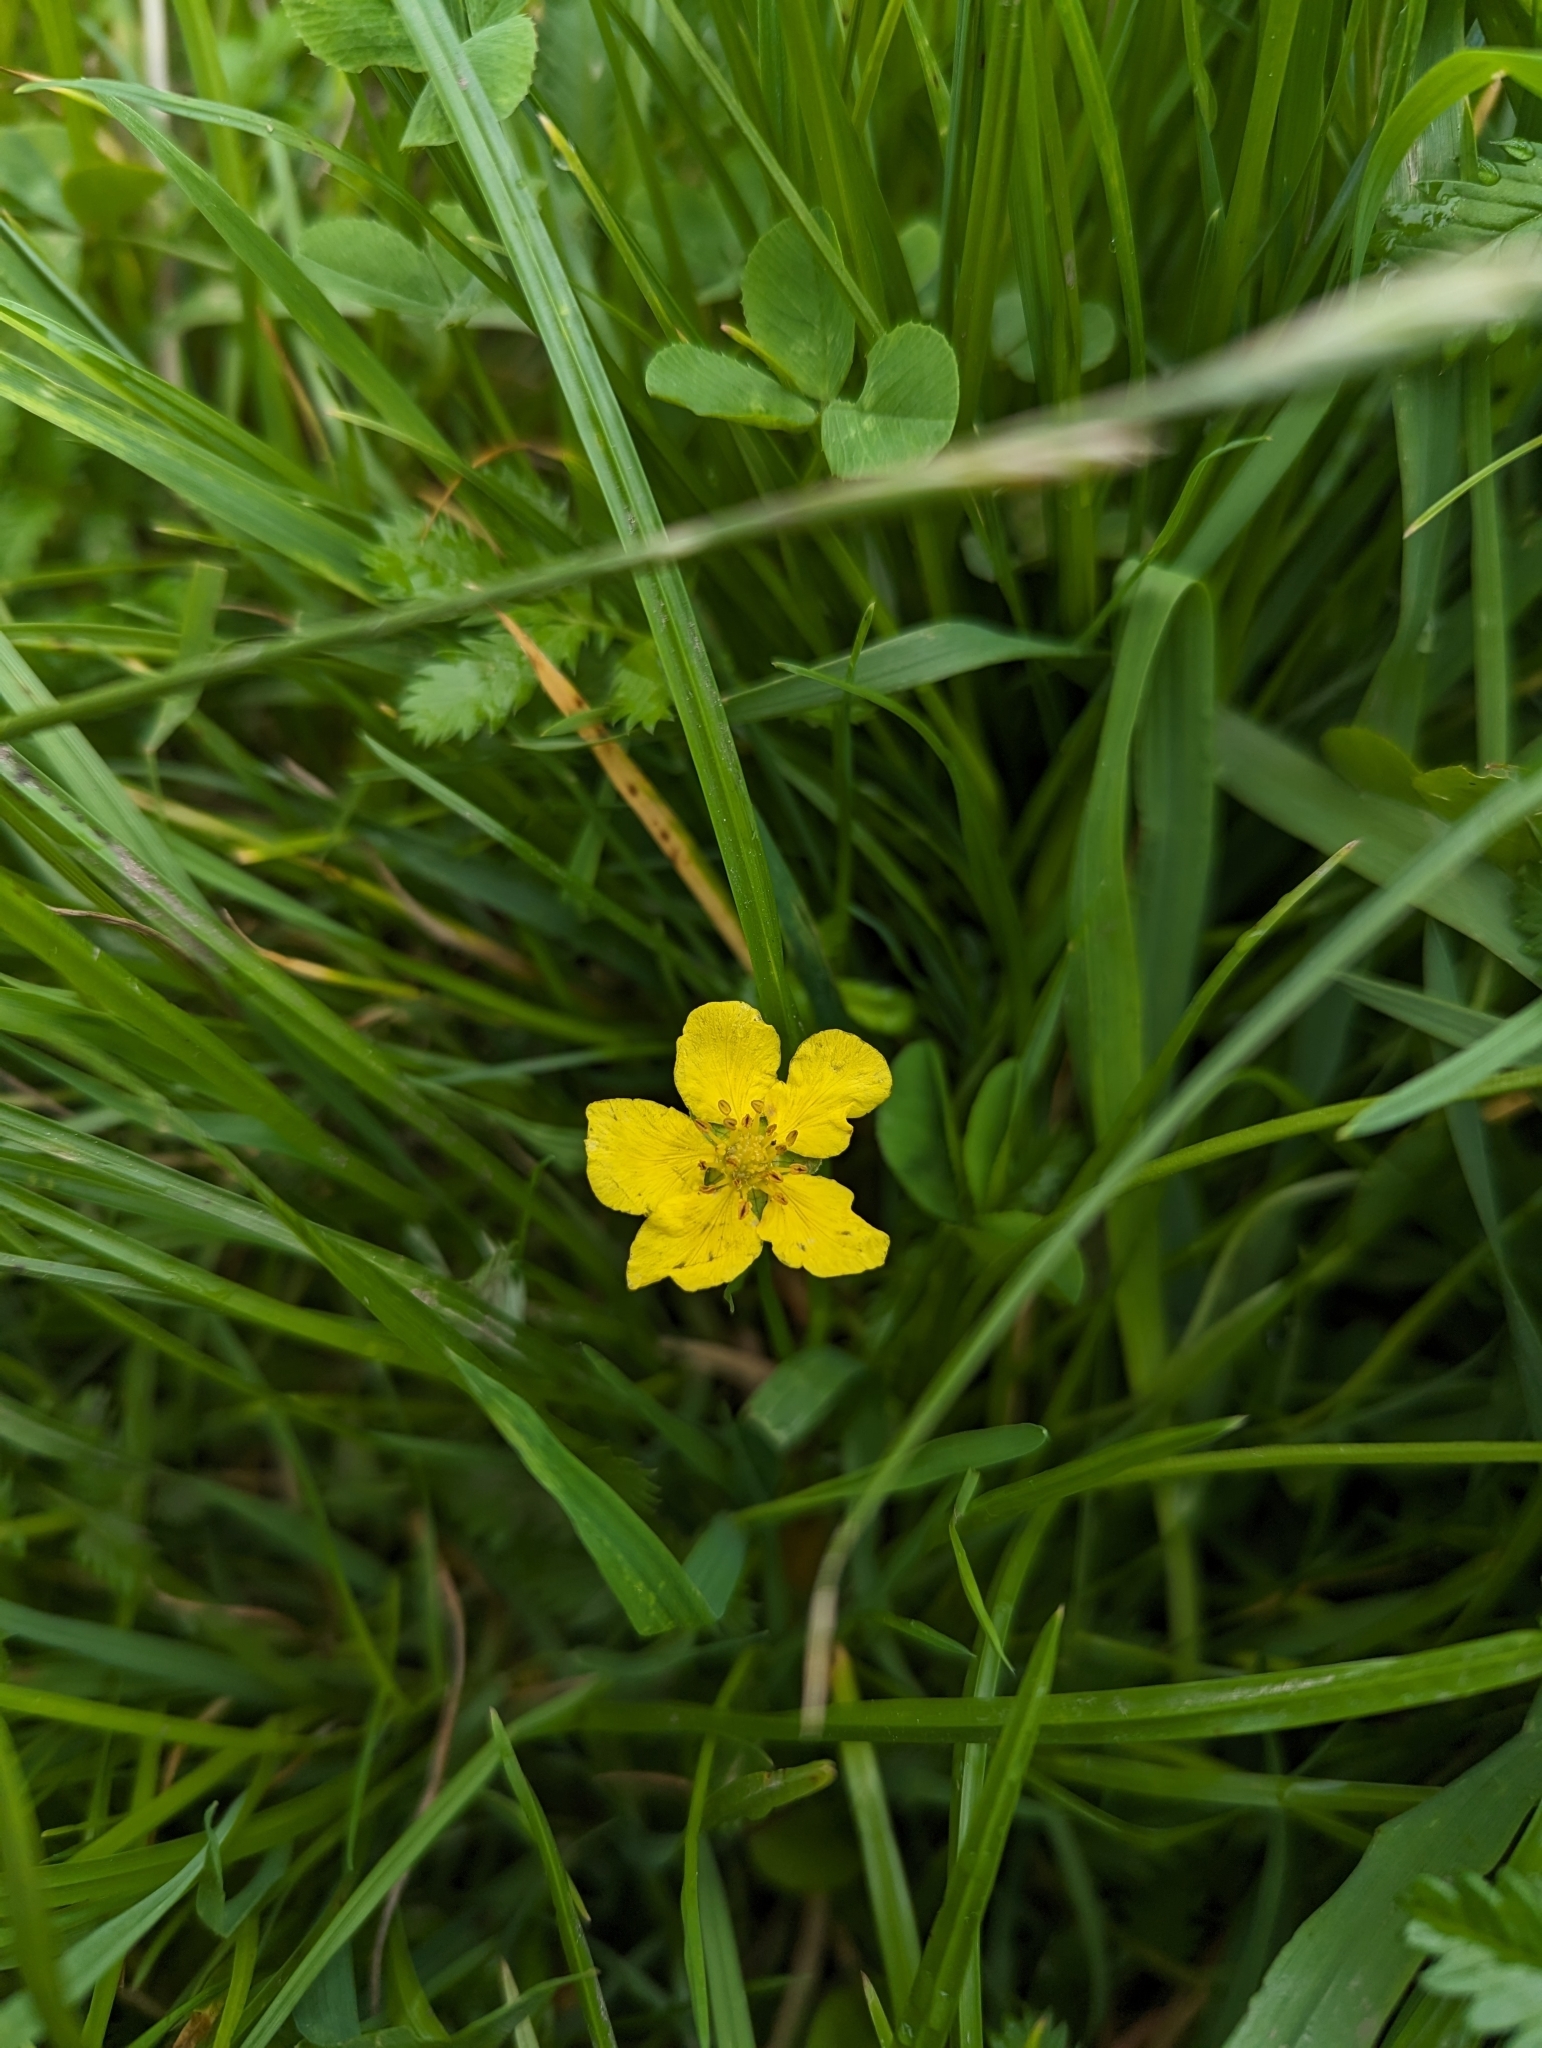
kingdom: Plantae
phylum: Tracheophyta
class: Magnoliopsida
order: Rosales
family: Rosaceae
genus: Argentina
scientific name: Argentina anserina
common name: Common silverweed
